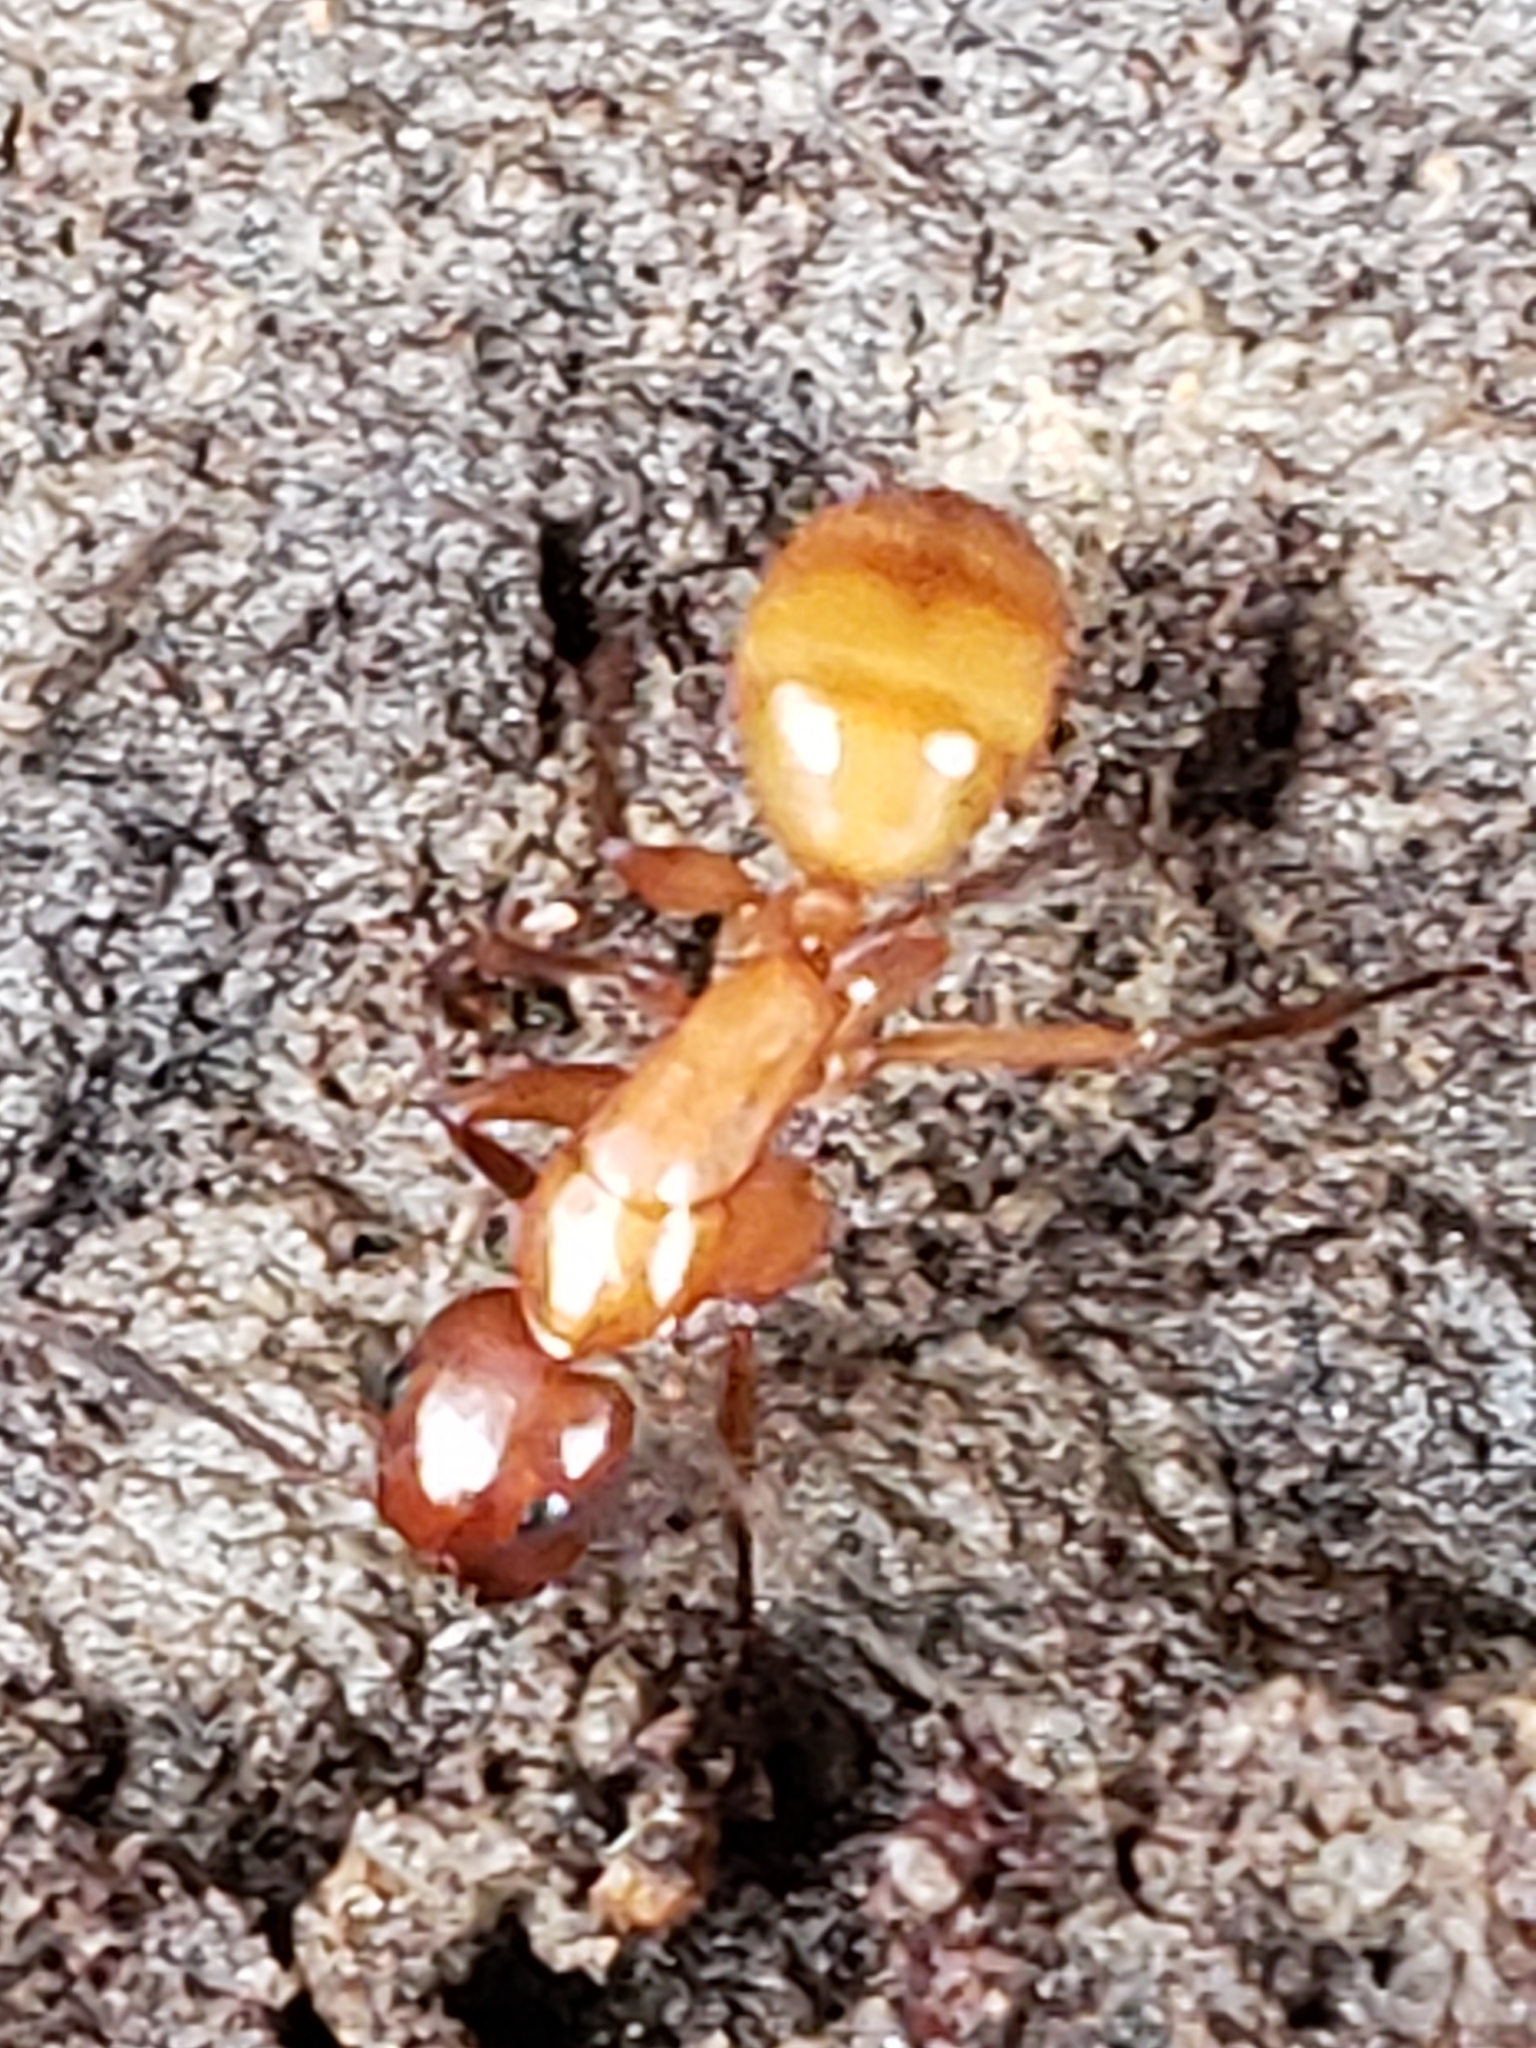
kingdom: Animalia
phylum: Arthropoda
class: Insecta
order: Hymenoptera
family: Formicidae
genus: Camponotus
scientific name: Camponotus castaneus
